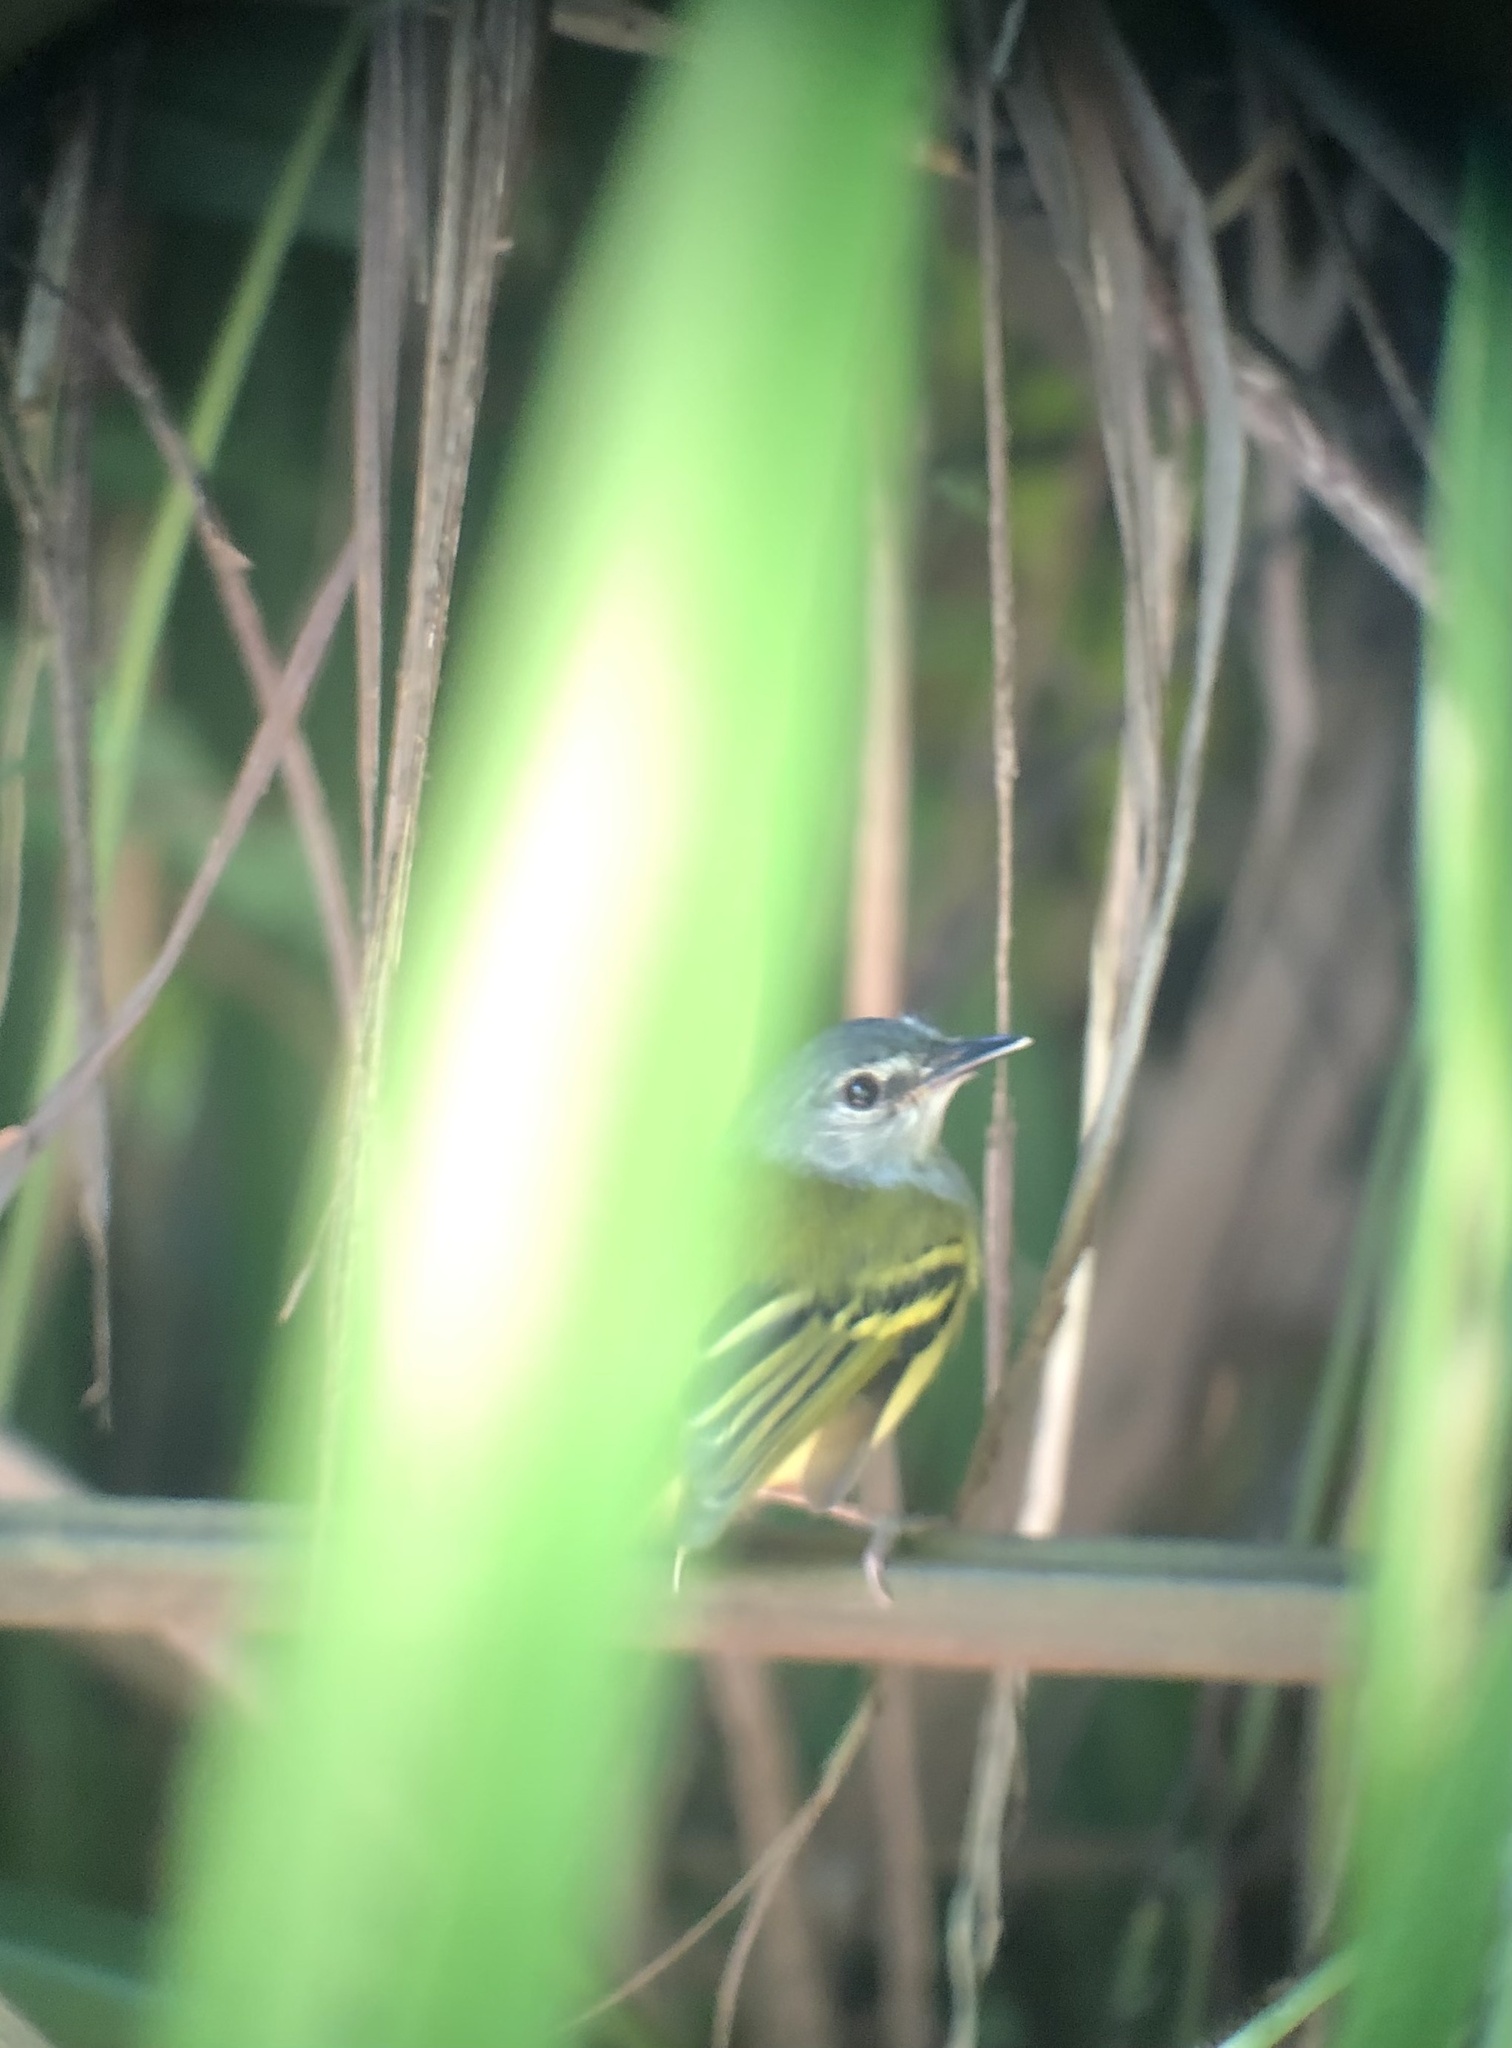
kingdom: Animalia
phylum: Chordata
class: Aves
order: Passeriformes
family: Tyrannidae
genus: Poecilotriccus
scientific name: Poecilotriccus sylvia
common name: Slate-headed tody-flycatcher
